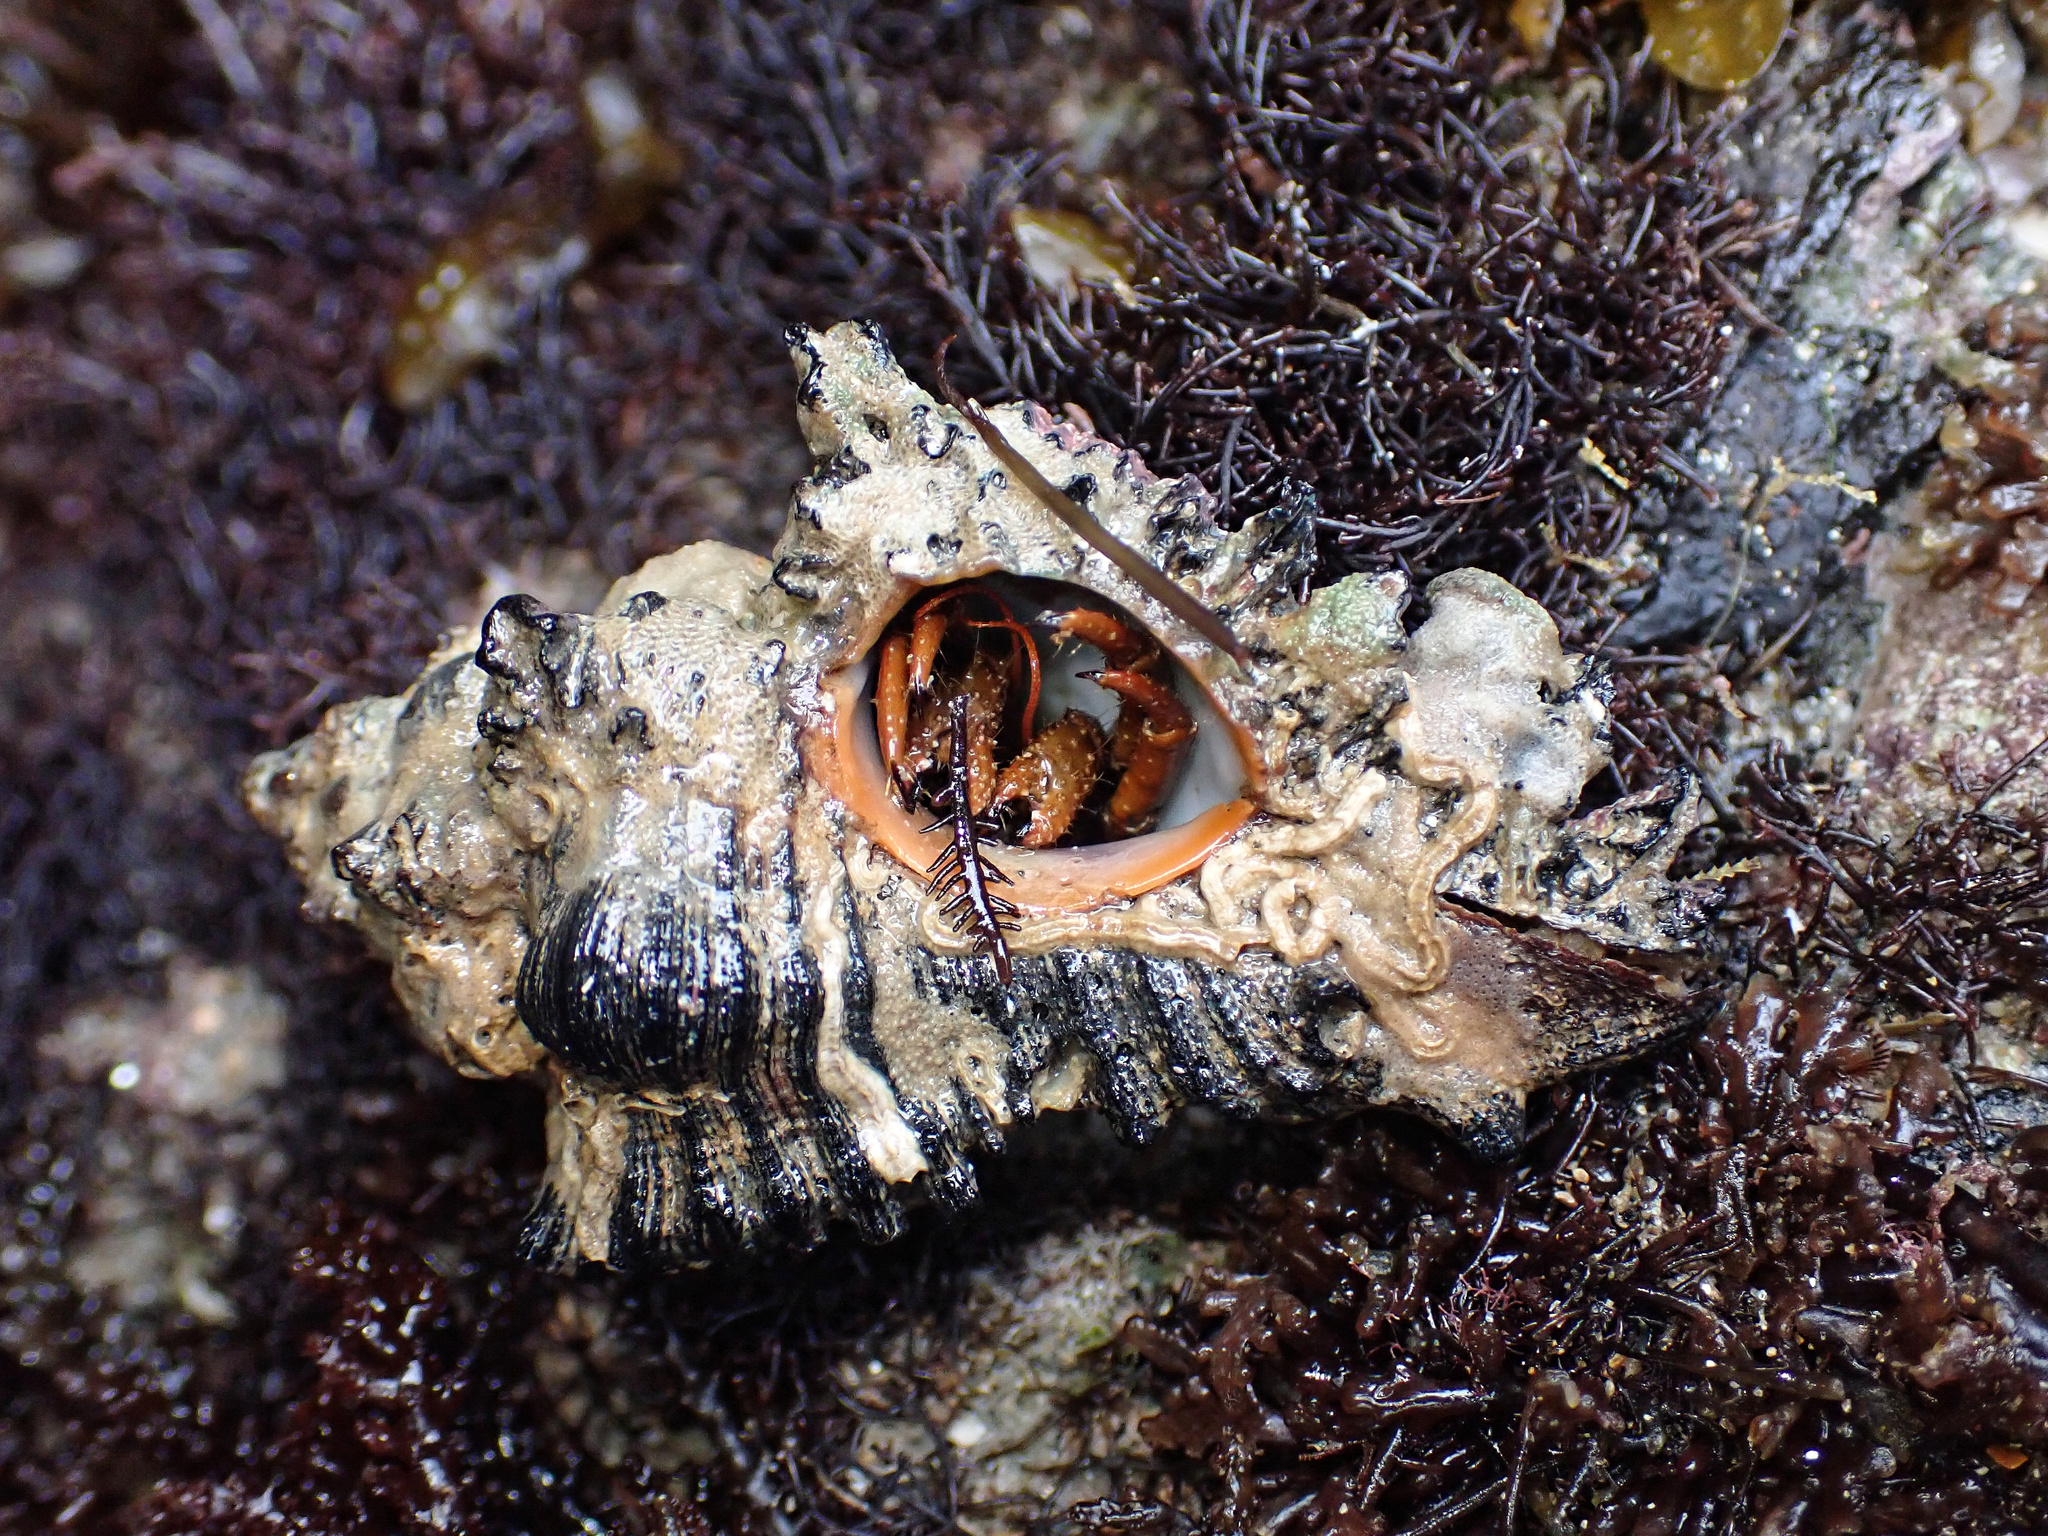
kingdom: Animalia
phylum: Mollusca
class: Gastropoda
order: Neogastropoda
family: Muricidae
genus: Chicoreus
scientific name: Chicoreus brunneus
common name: Adusta murex
